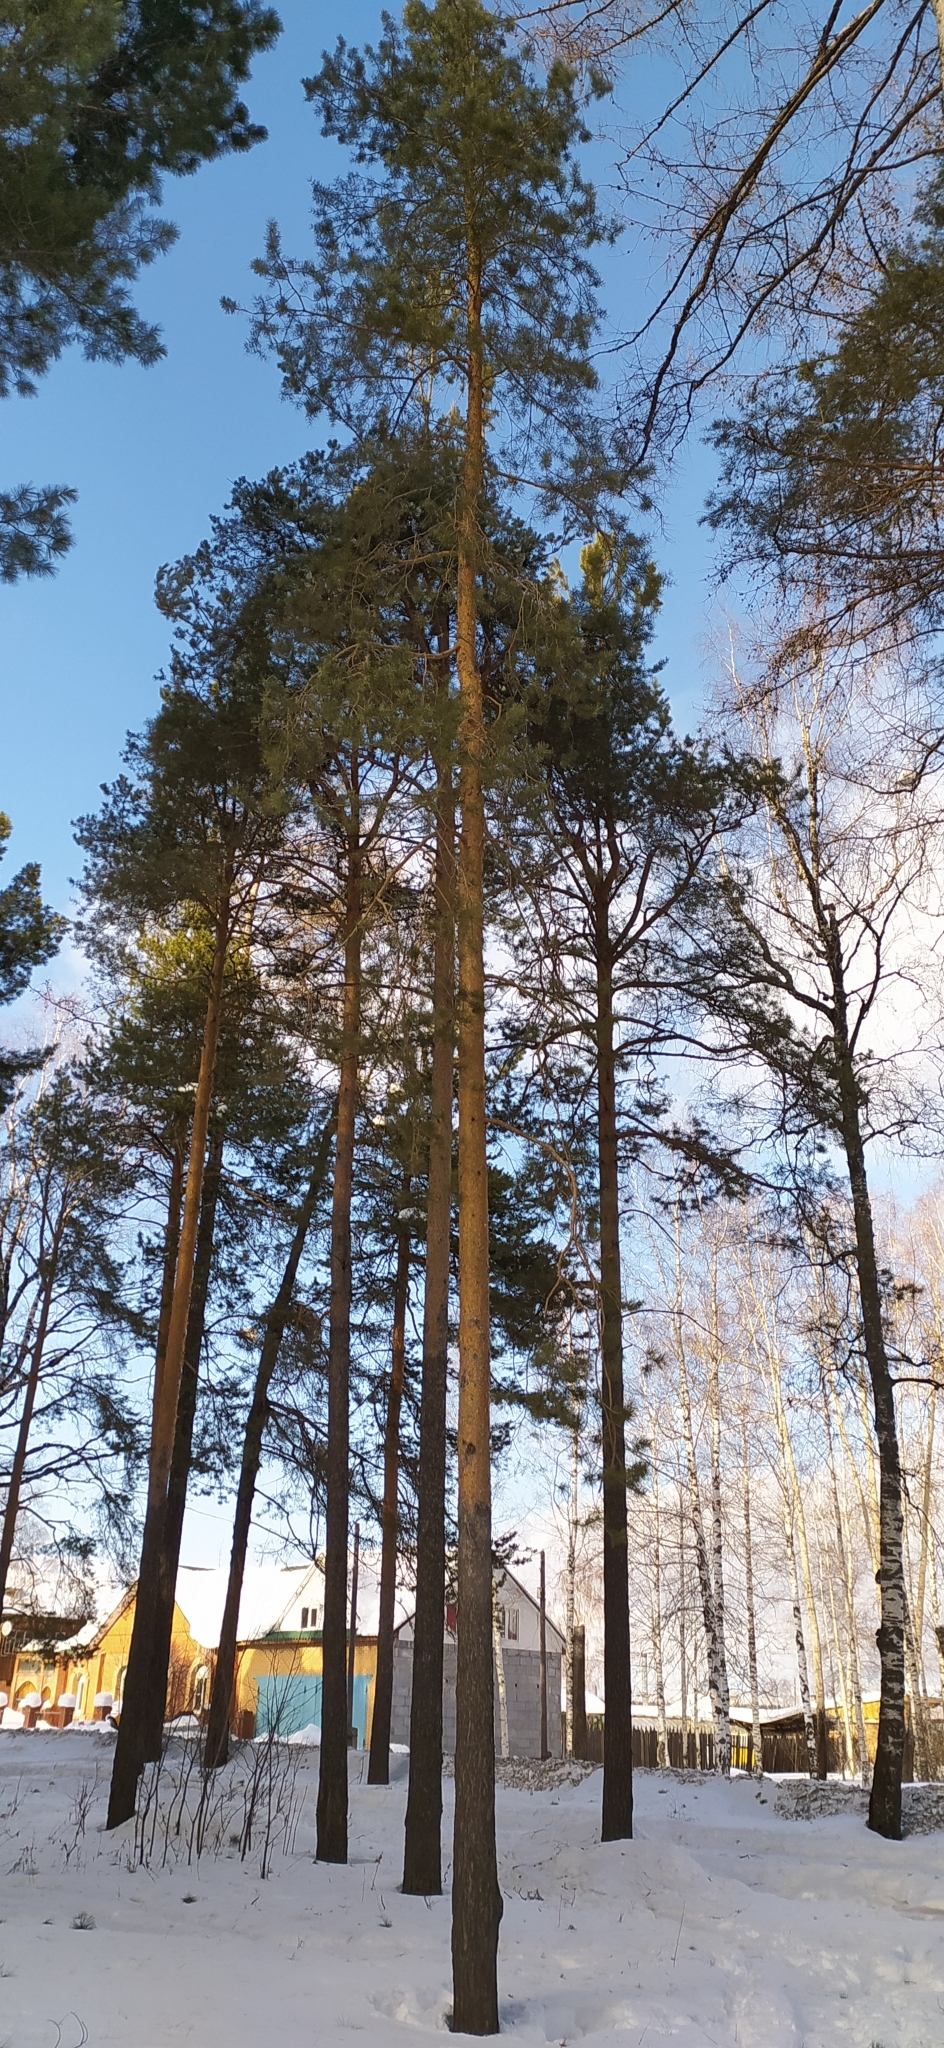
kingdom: Plantae
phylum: Tracheophyta
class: Pinopsida
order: Pinales
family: Pinaceae
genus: Pinus
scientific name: Pinus sylvestris
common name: Scots pine
